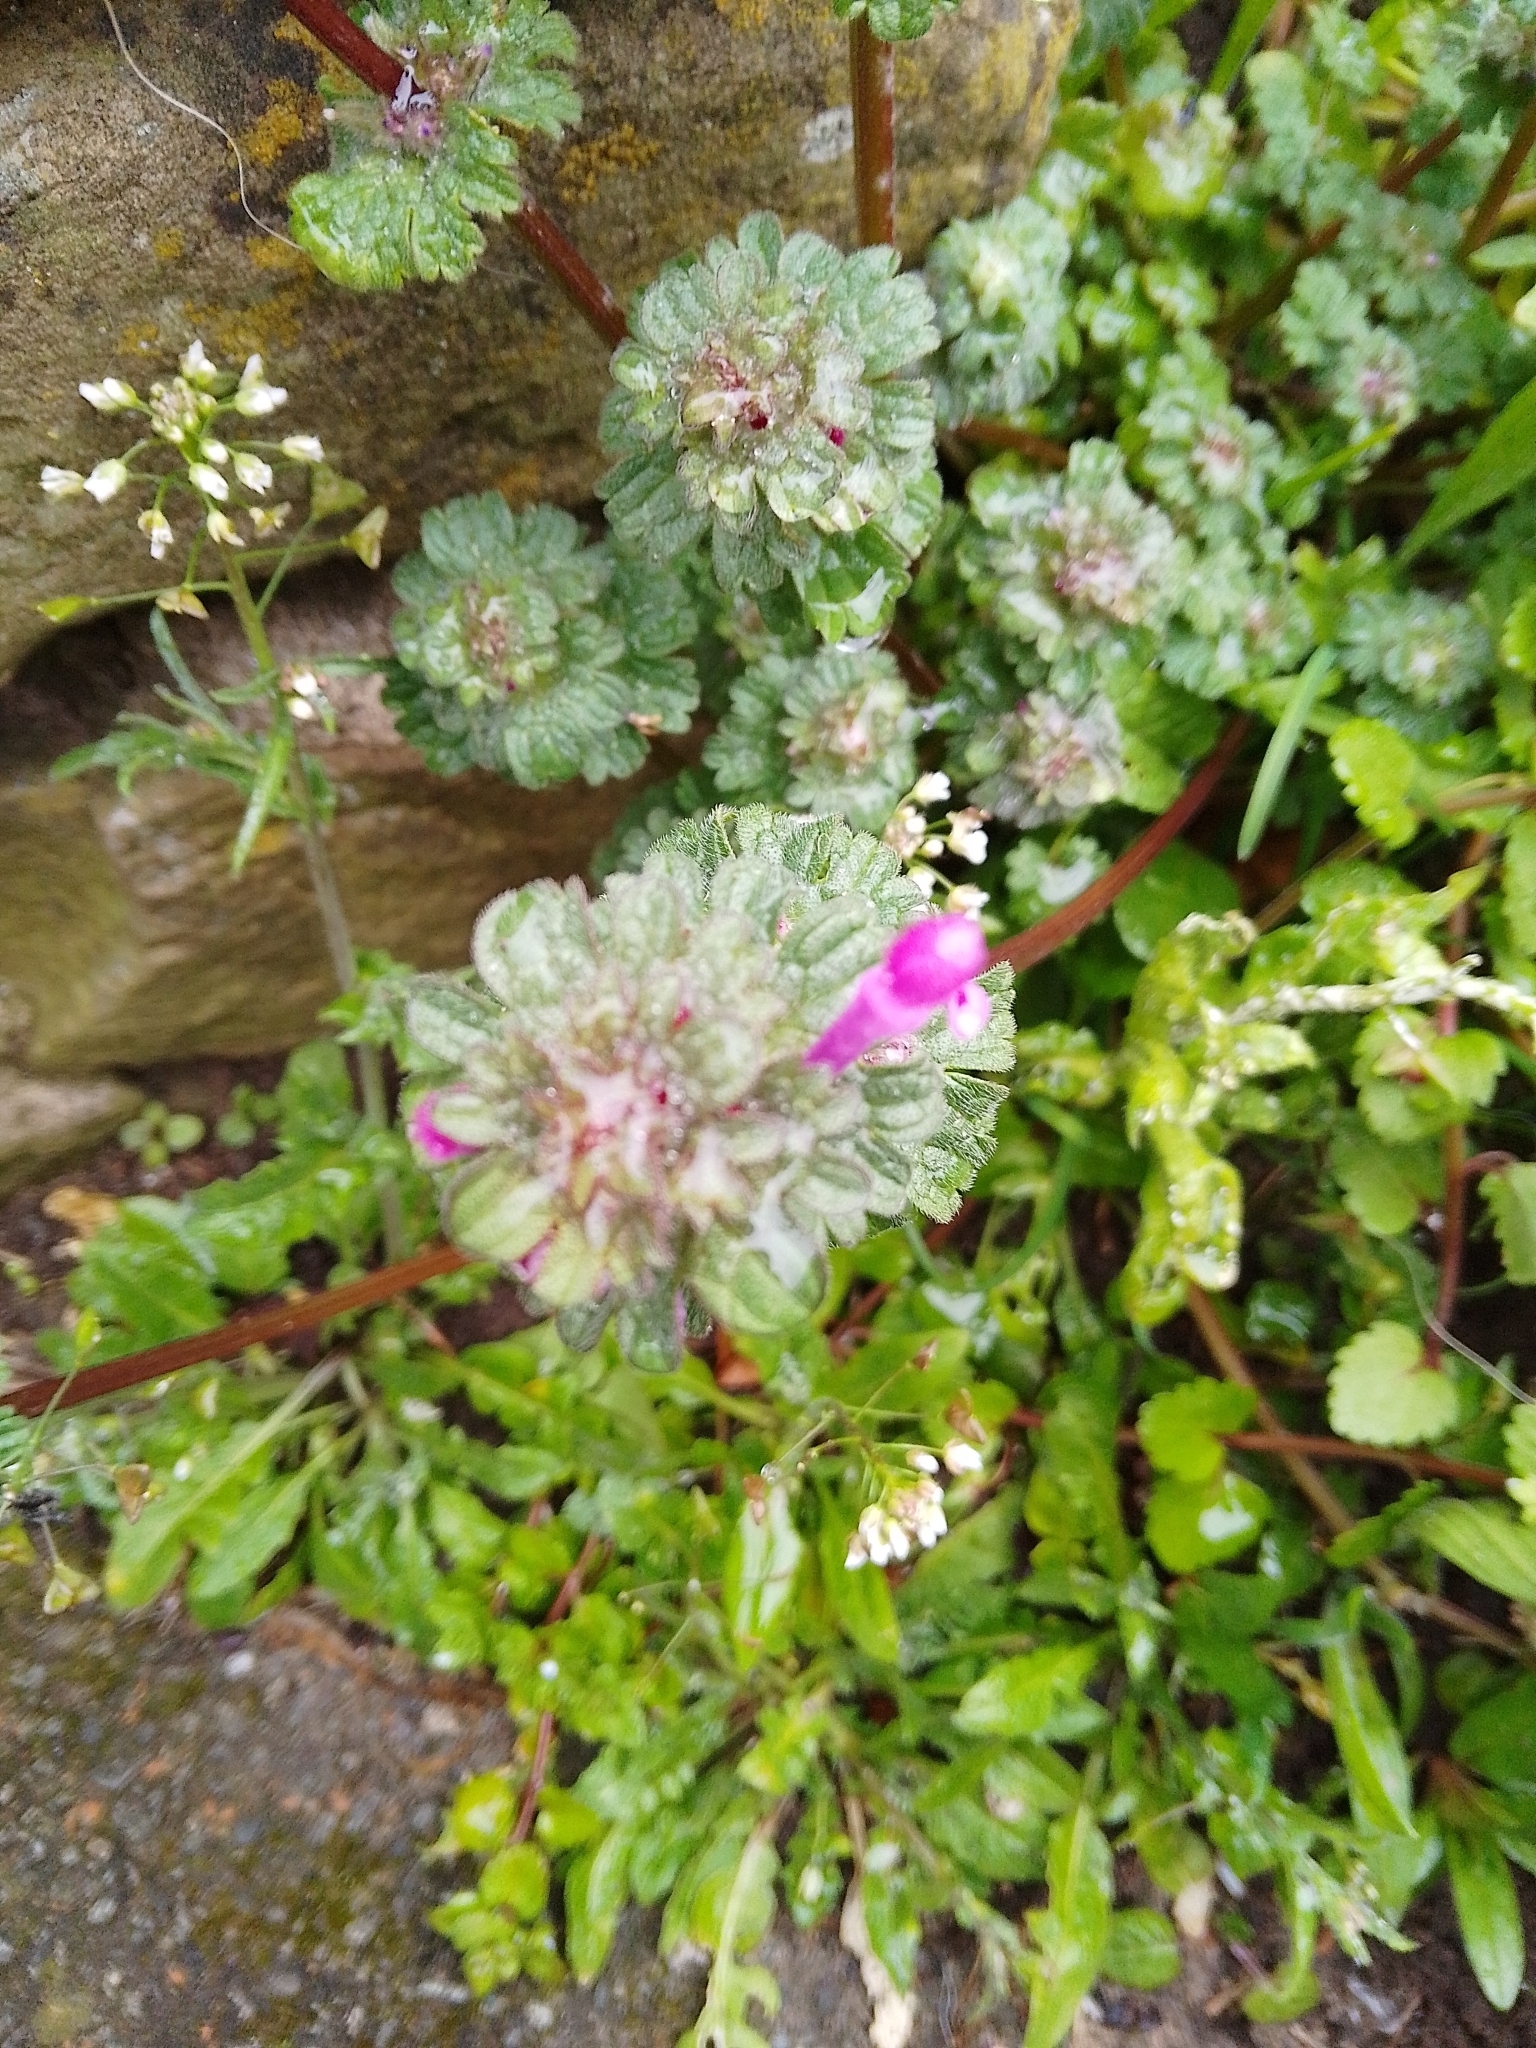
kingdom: Plantae
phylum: Tracheophyta
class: Magnoliopsida
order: Lamiales
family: Lamiaceae
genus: Lamium
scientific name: Lamium amplexicaule
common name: Henbit dead-nettle
